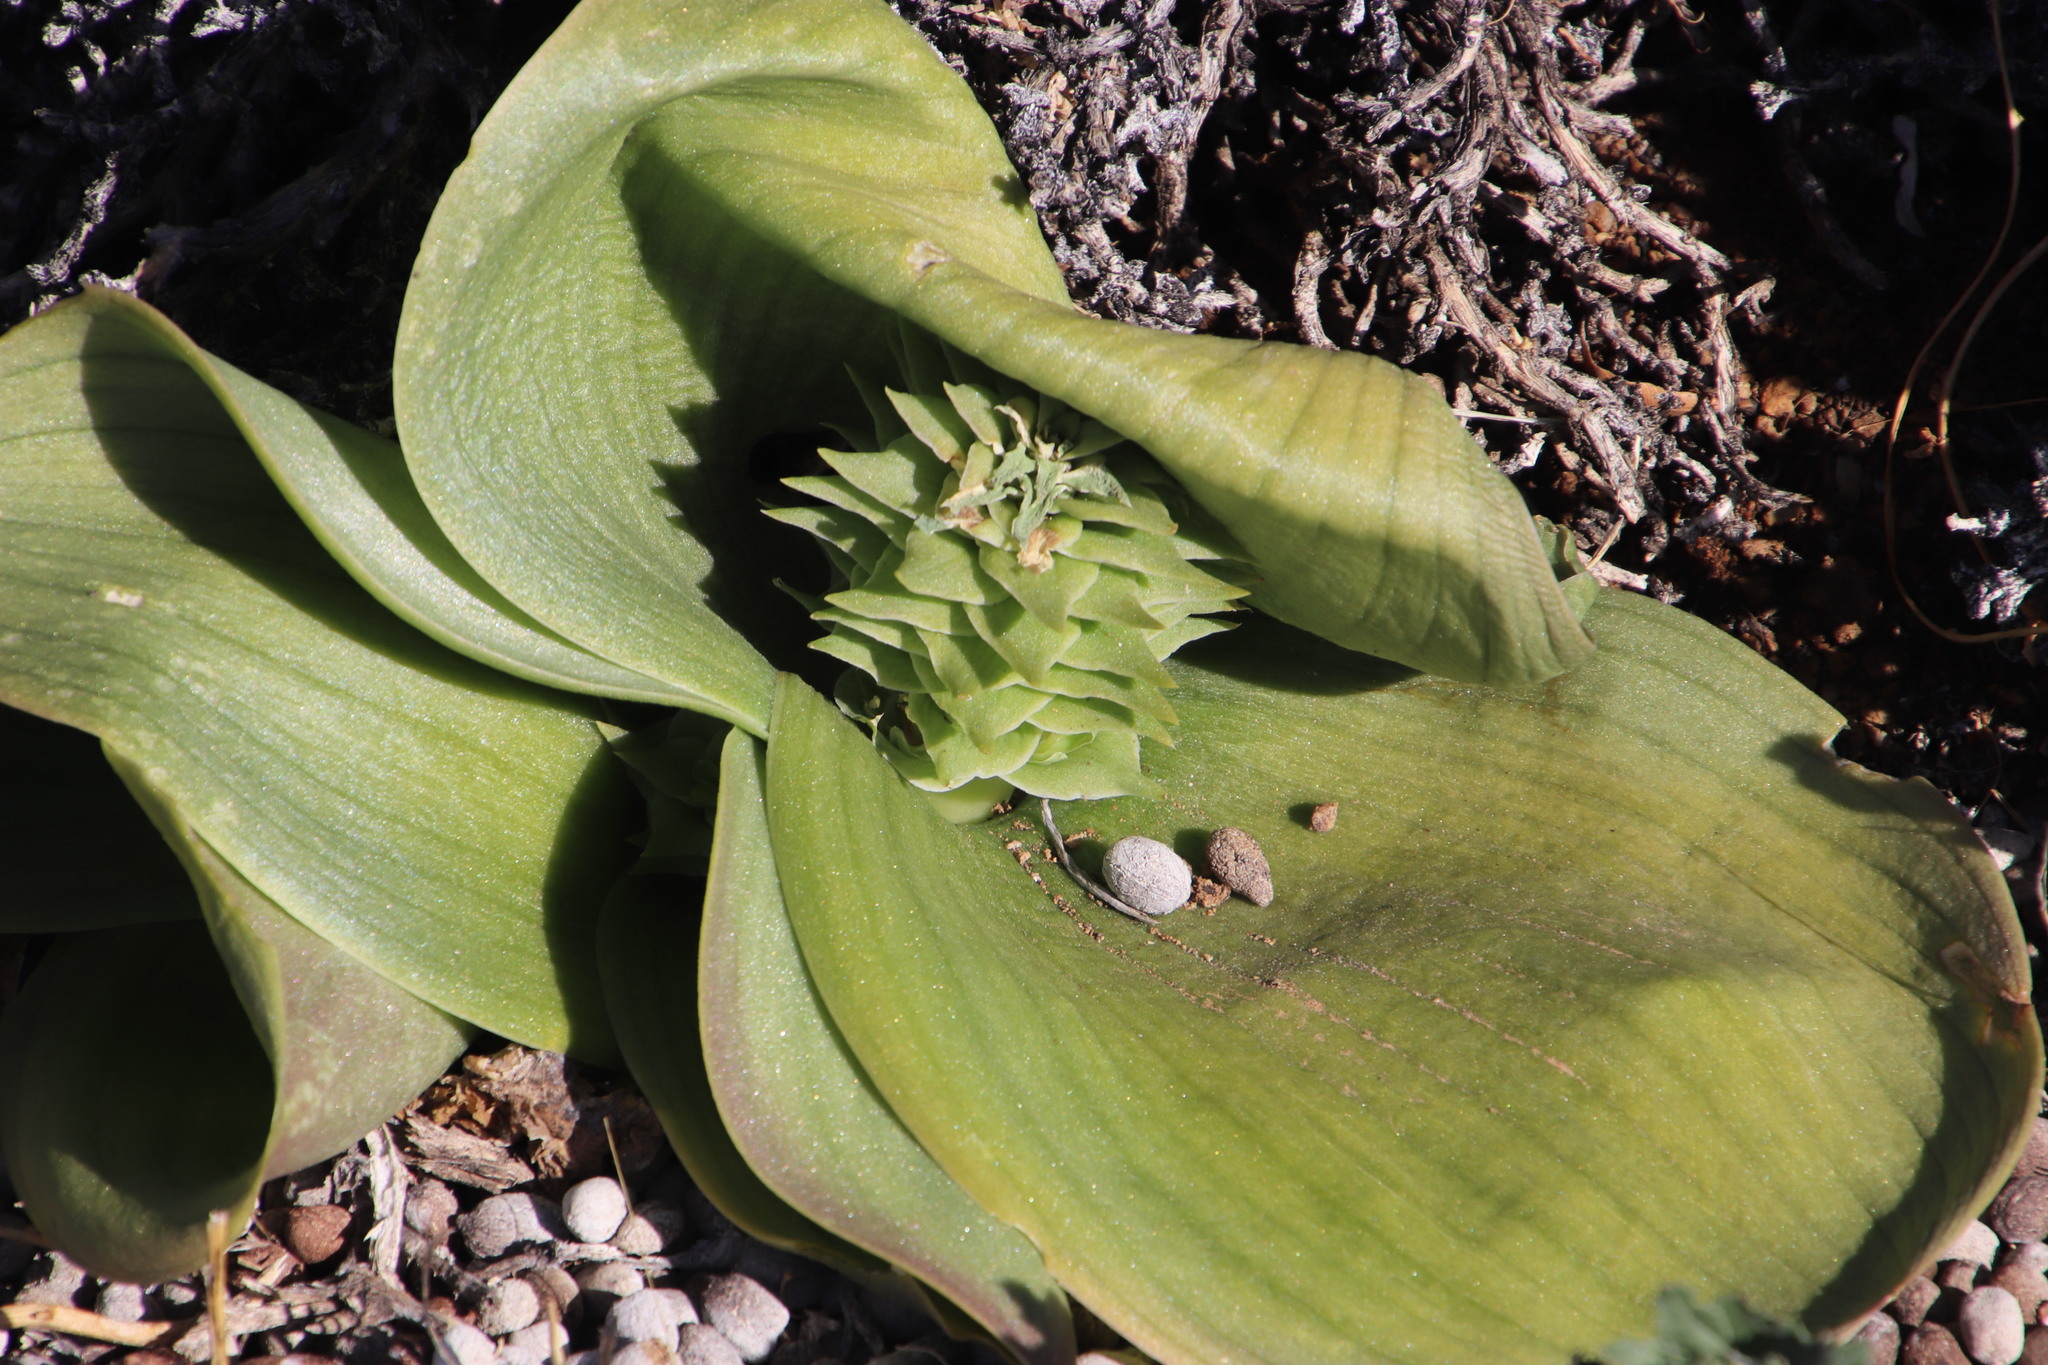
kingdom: Plantae
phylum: Tracheophyta
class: Liliopsida
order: Asparagales
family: Asparagaceae
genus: Massonia
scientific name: Massonia bifolia
